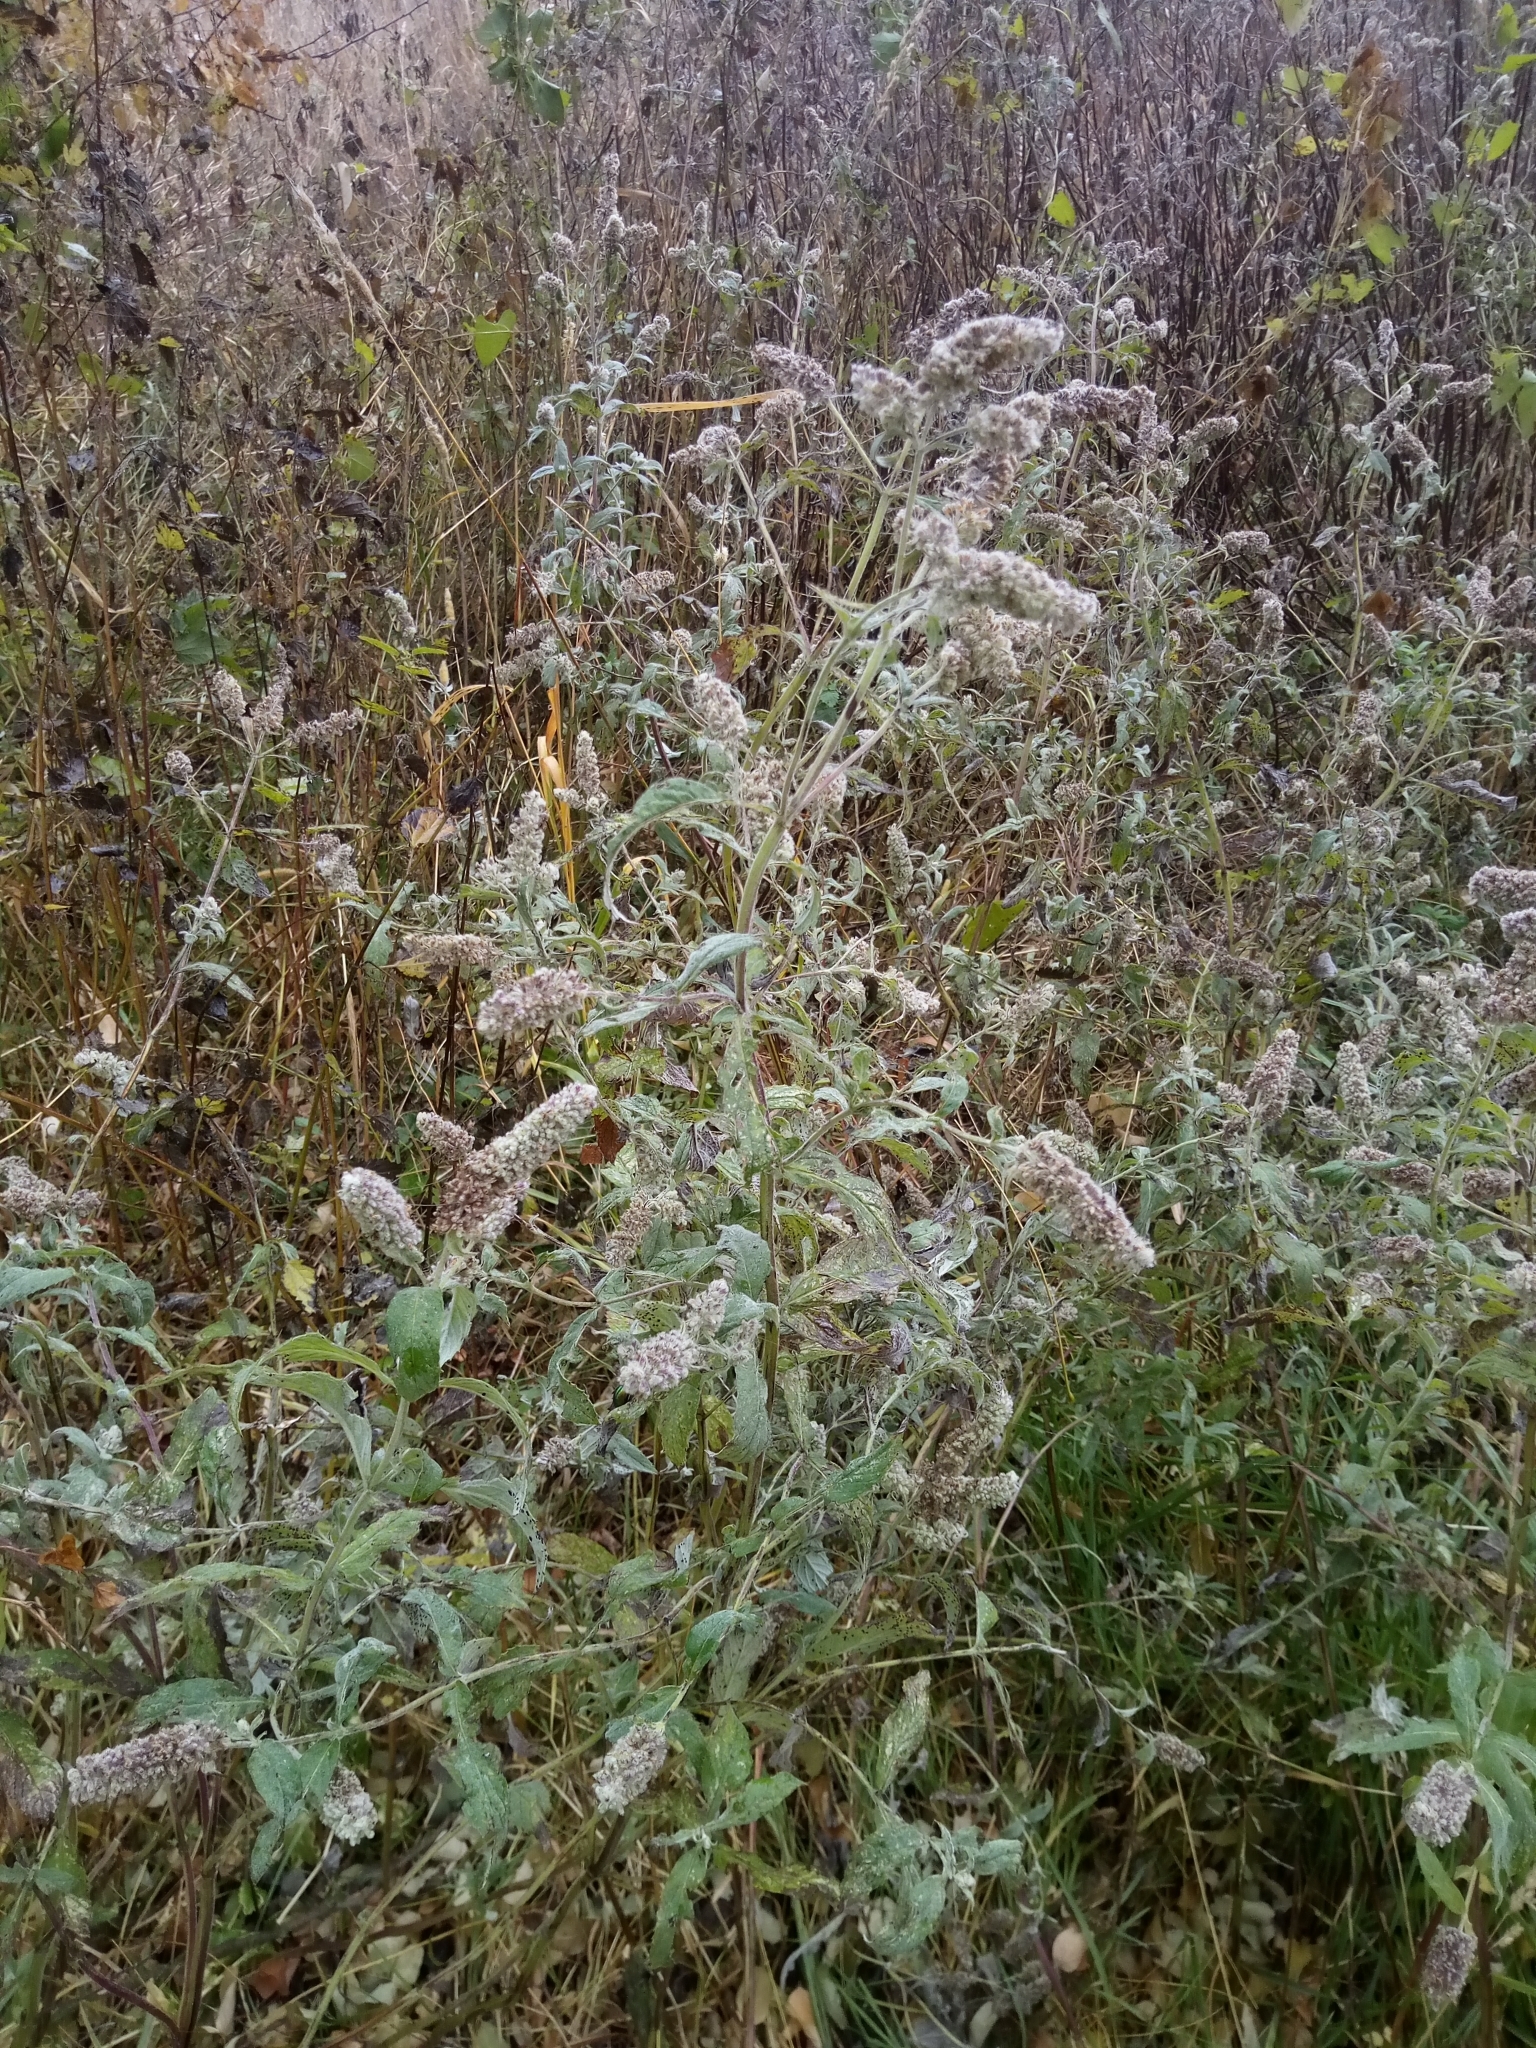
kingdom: Plantae
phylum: Tracheophyta
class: Magnoliopsida
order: Lamiales
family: Lamiaceae
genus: Mentha
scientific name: Mentha longifolia
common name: Horse mint
